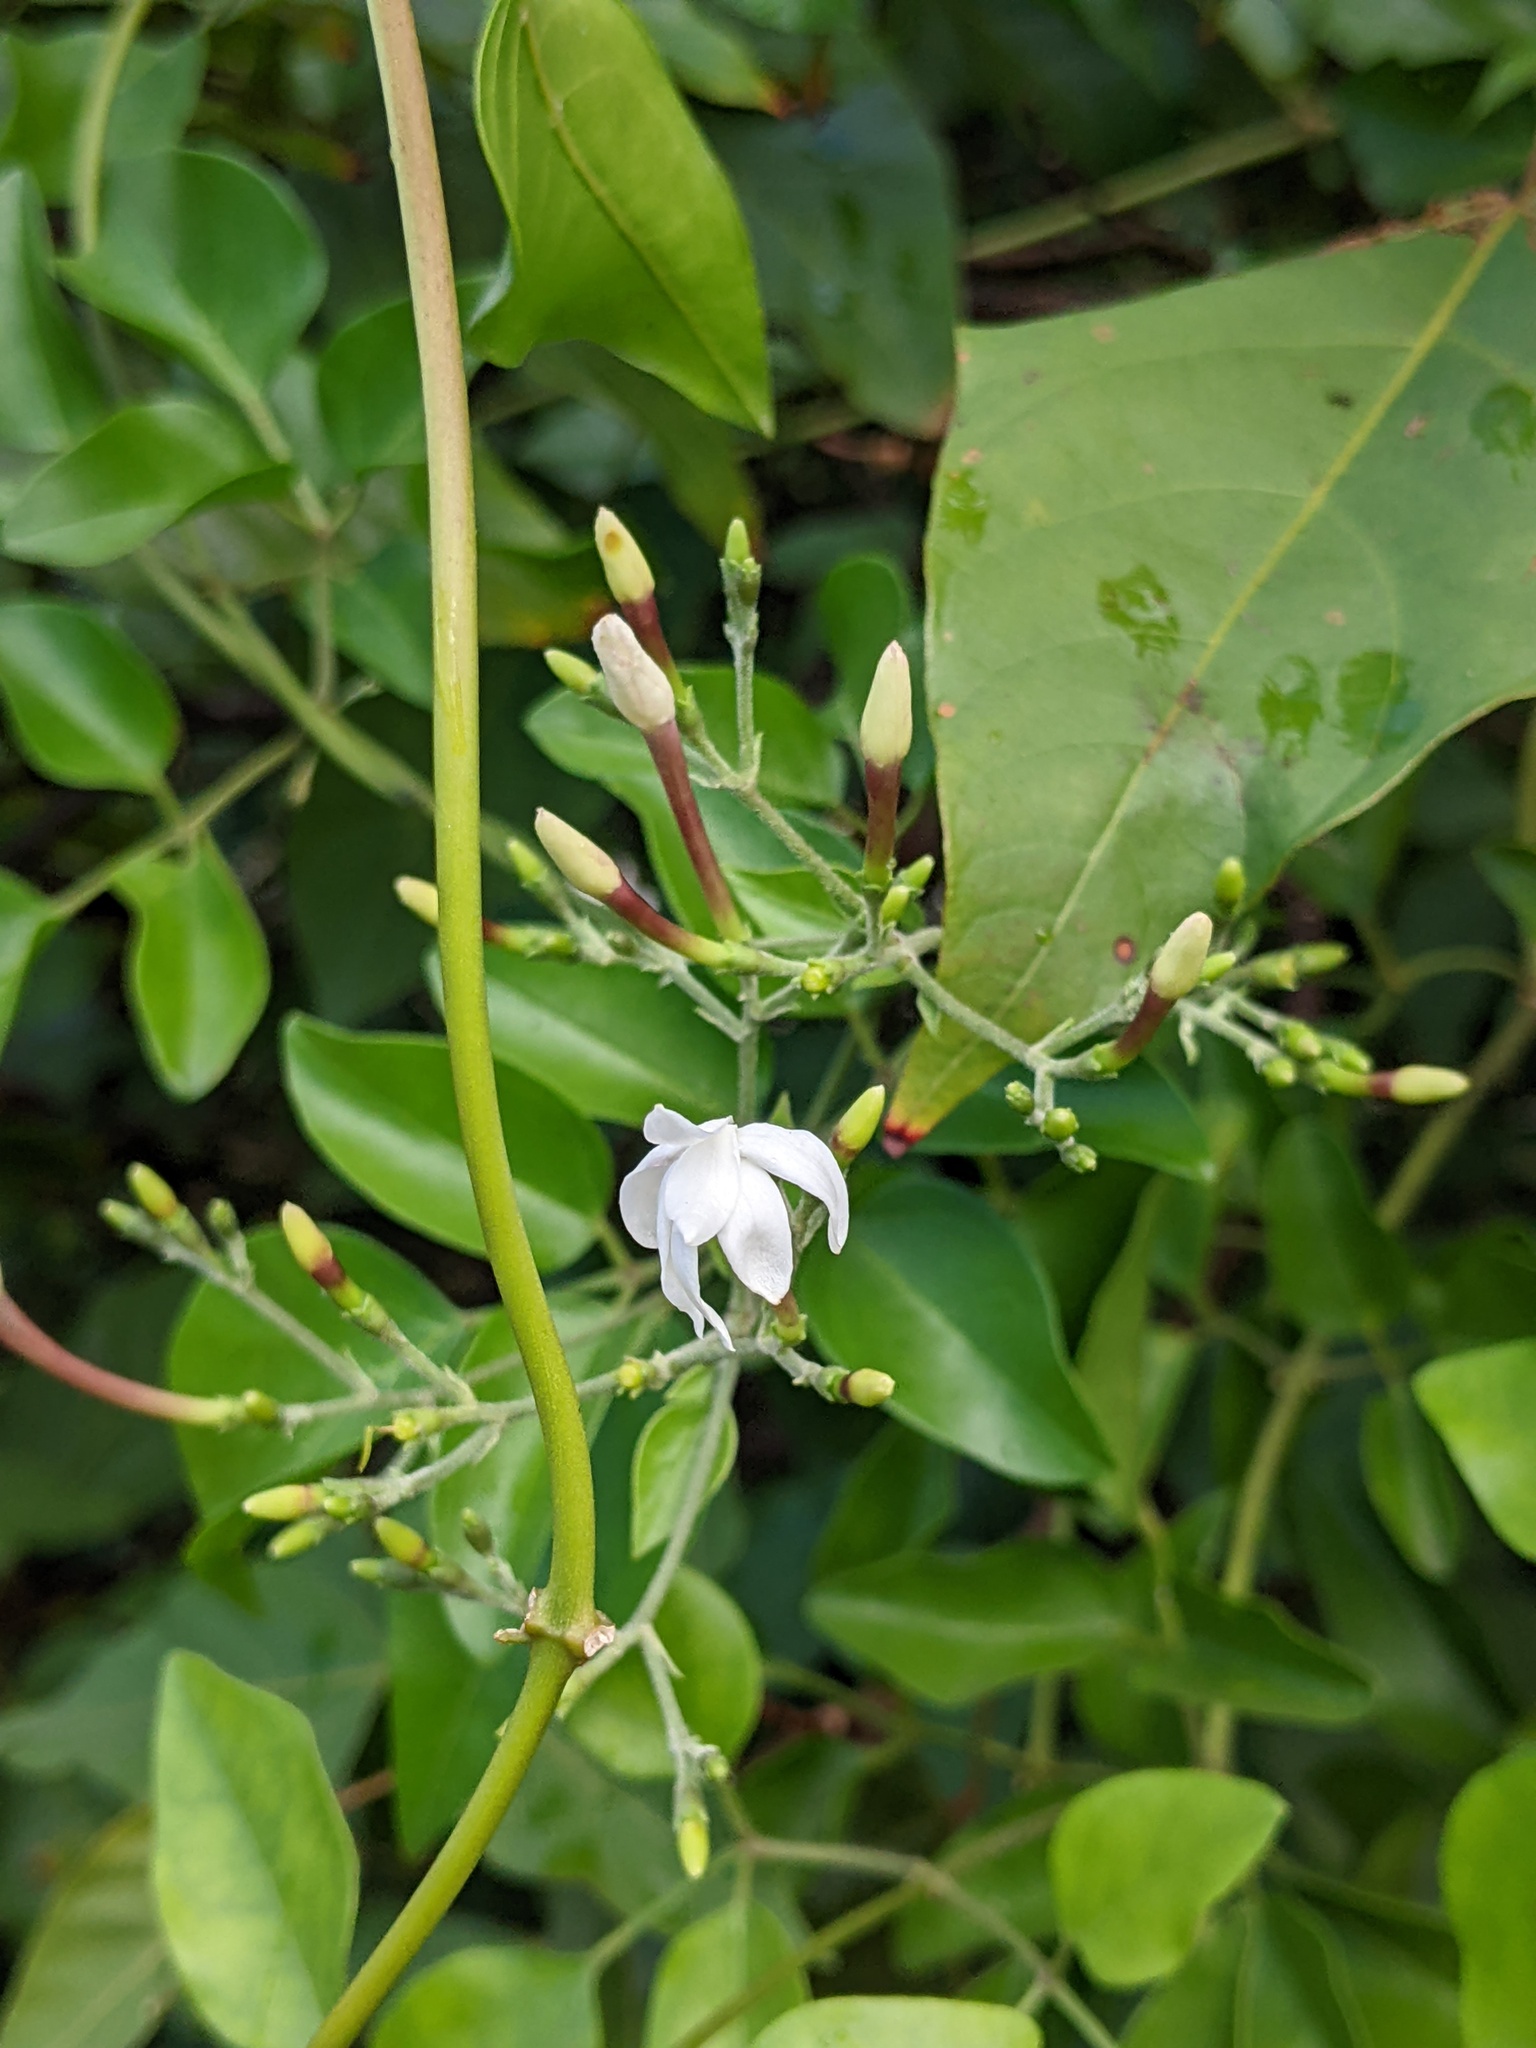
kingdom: Plantae
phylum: Tracheophyta
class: Magnoliopsida
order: Lamiales
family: Oleaceae
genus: Jasminum
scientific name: Jasminum fluminense
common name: Brazilian jasmine
